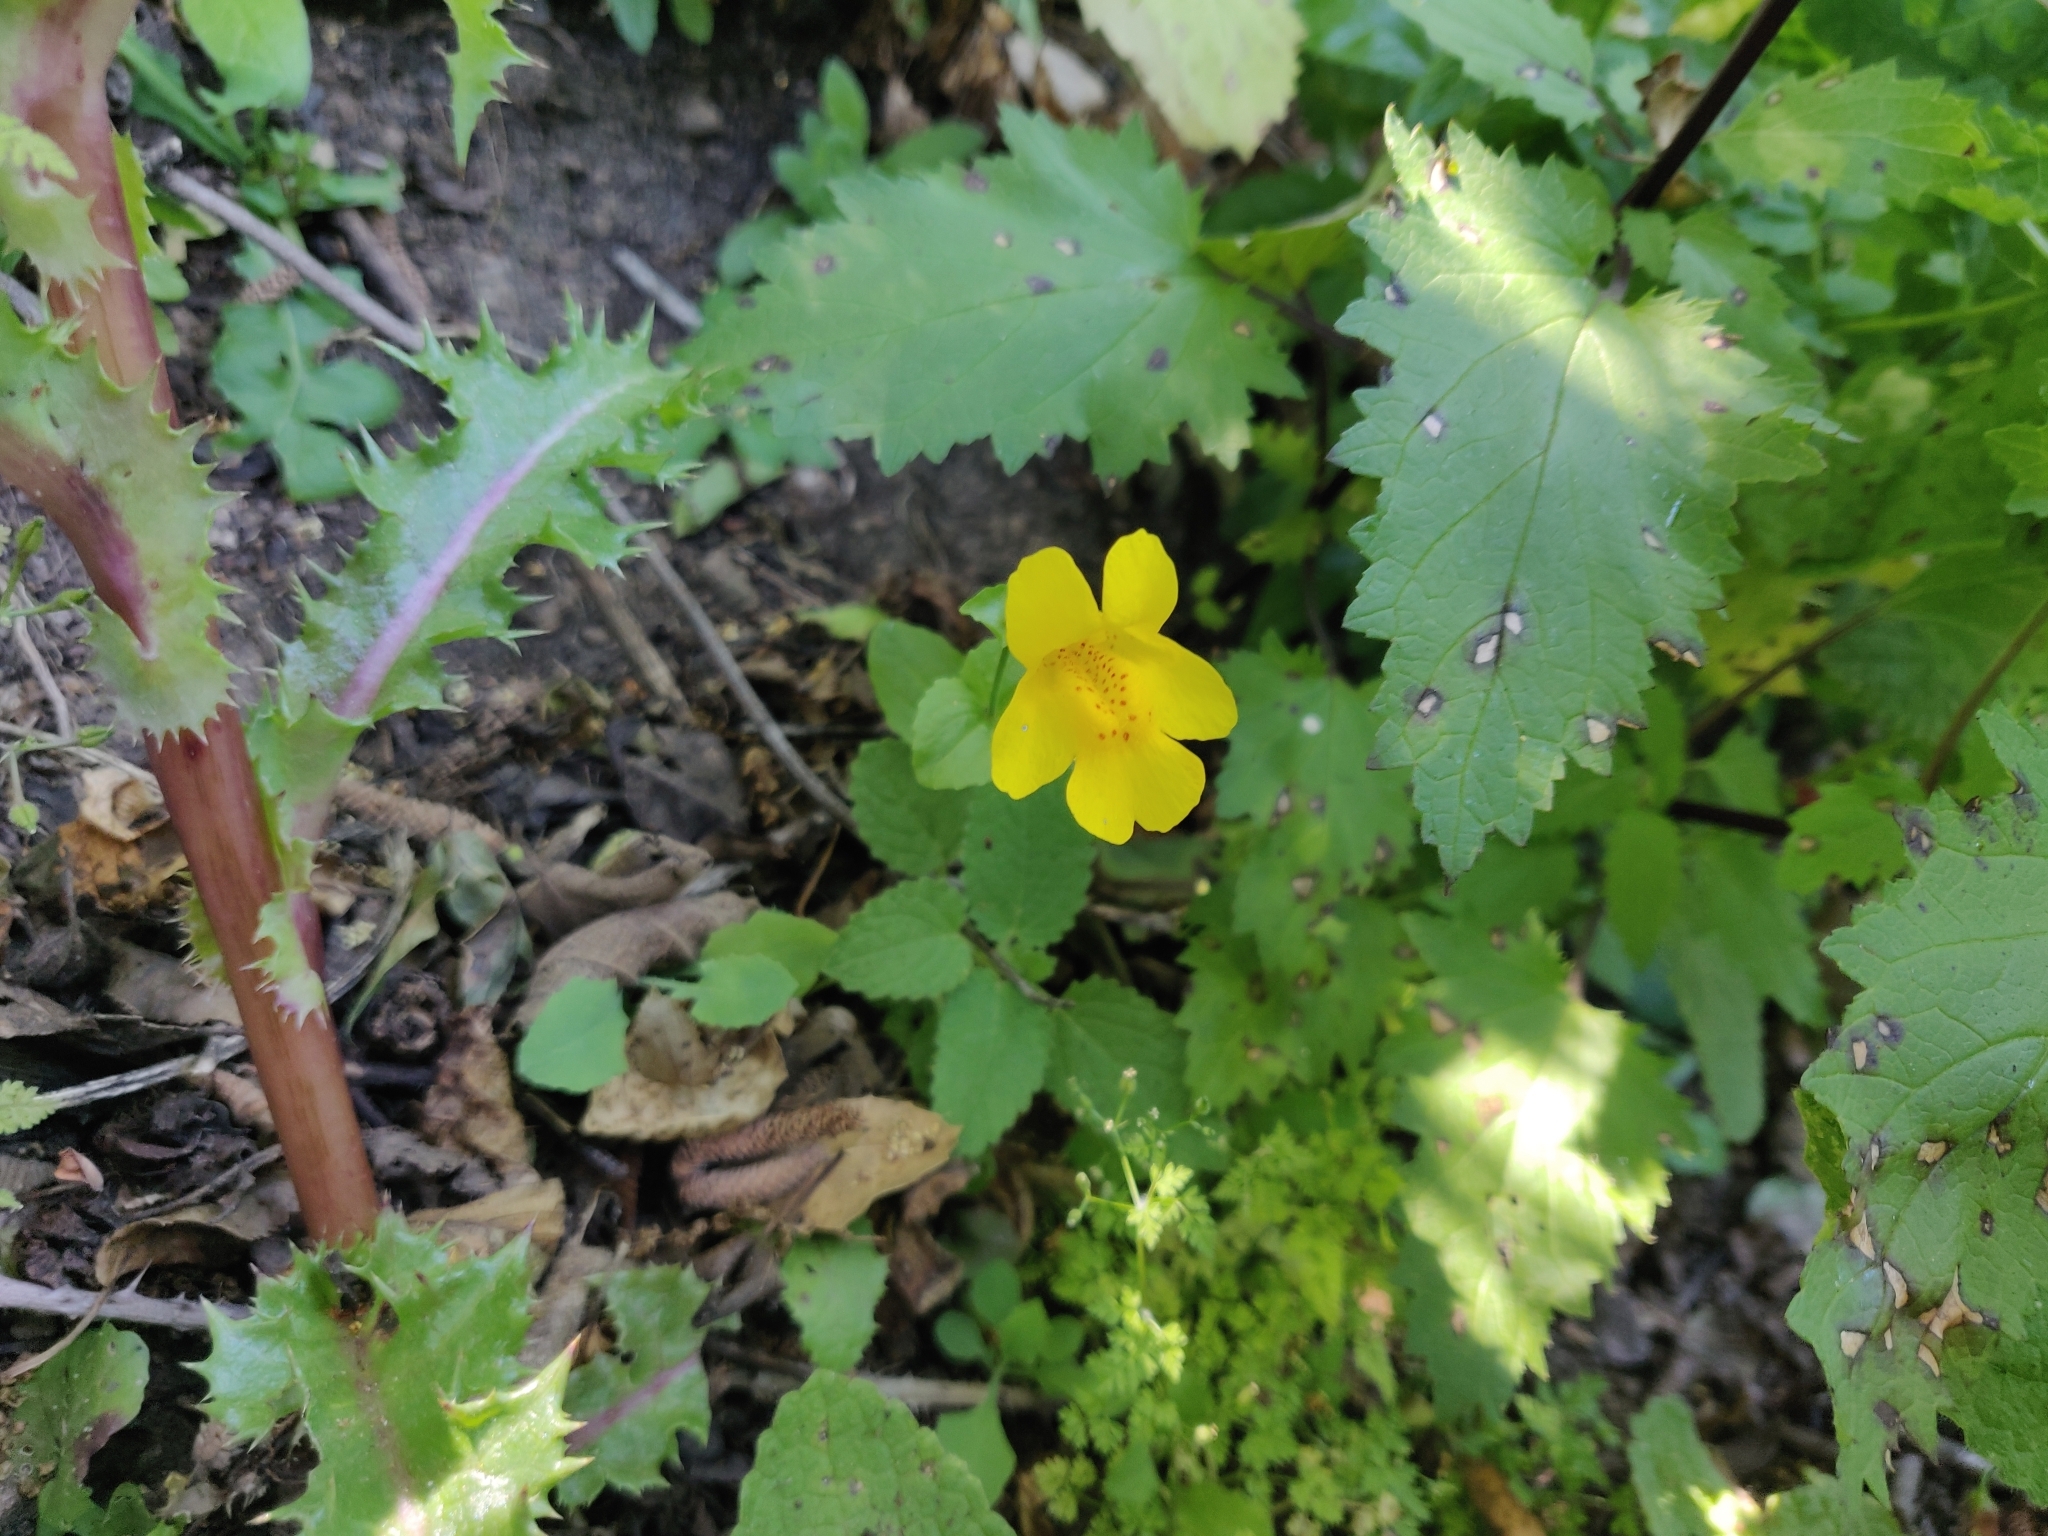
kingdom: Plantae
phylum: Tracheophyta
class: Magnoliopsida
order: Lamiales
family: Phrymaceae
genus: Erythranthe
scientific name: Erythranthe guttata
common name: Monkeyflower
